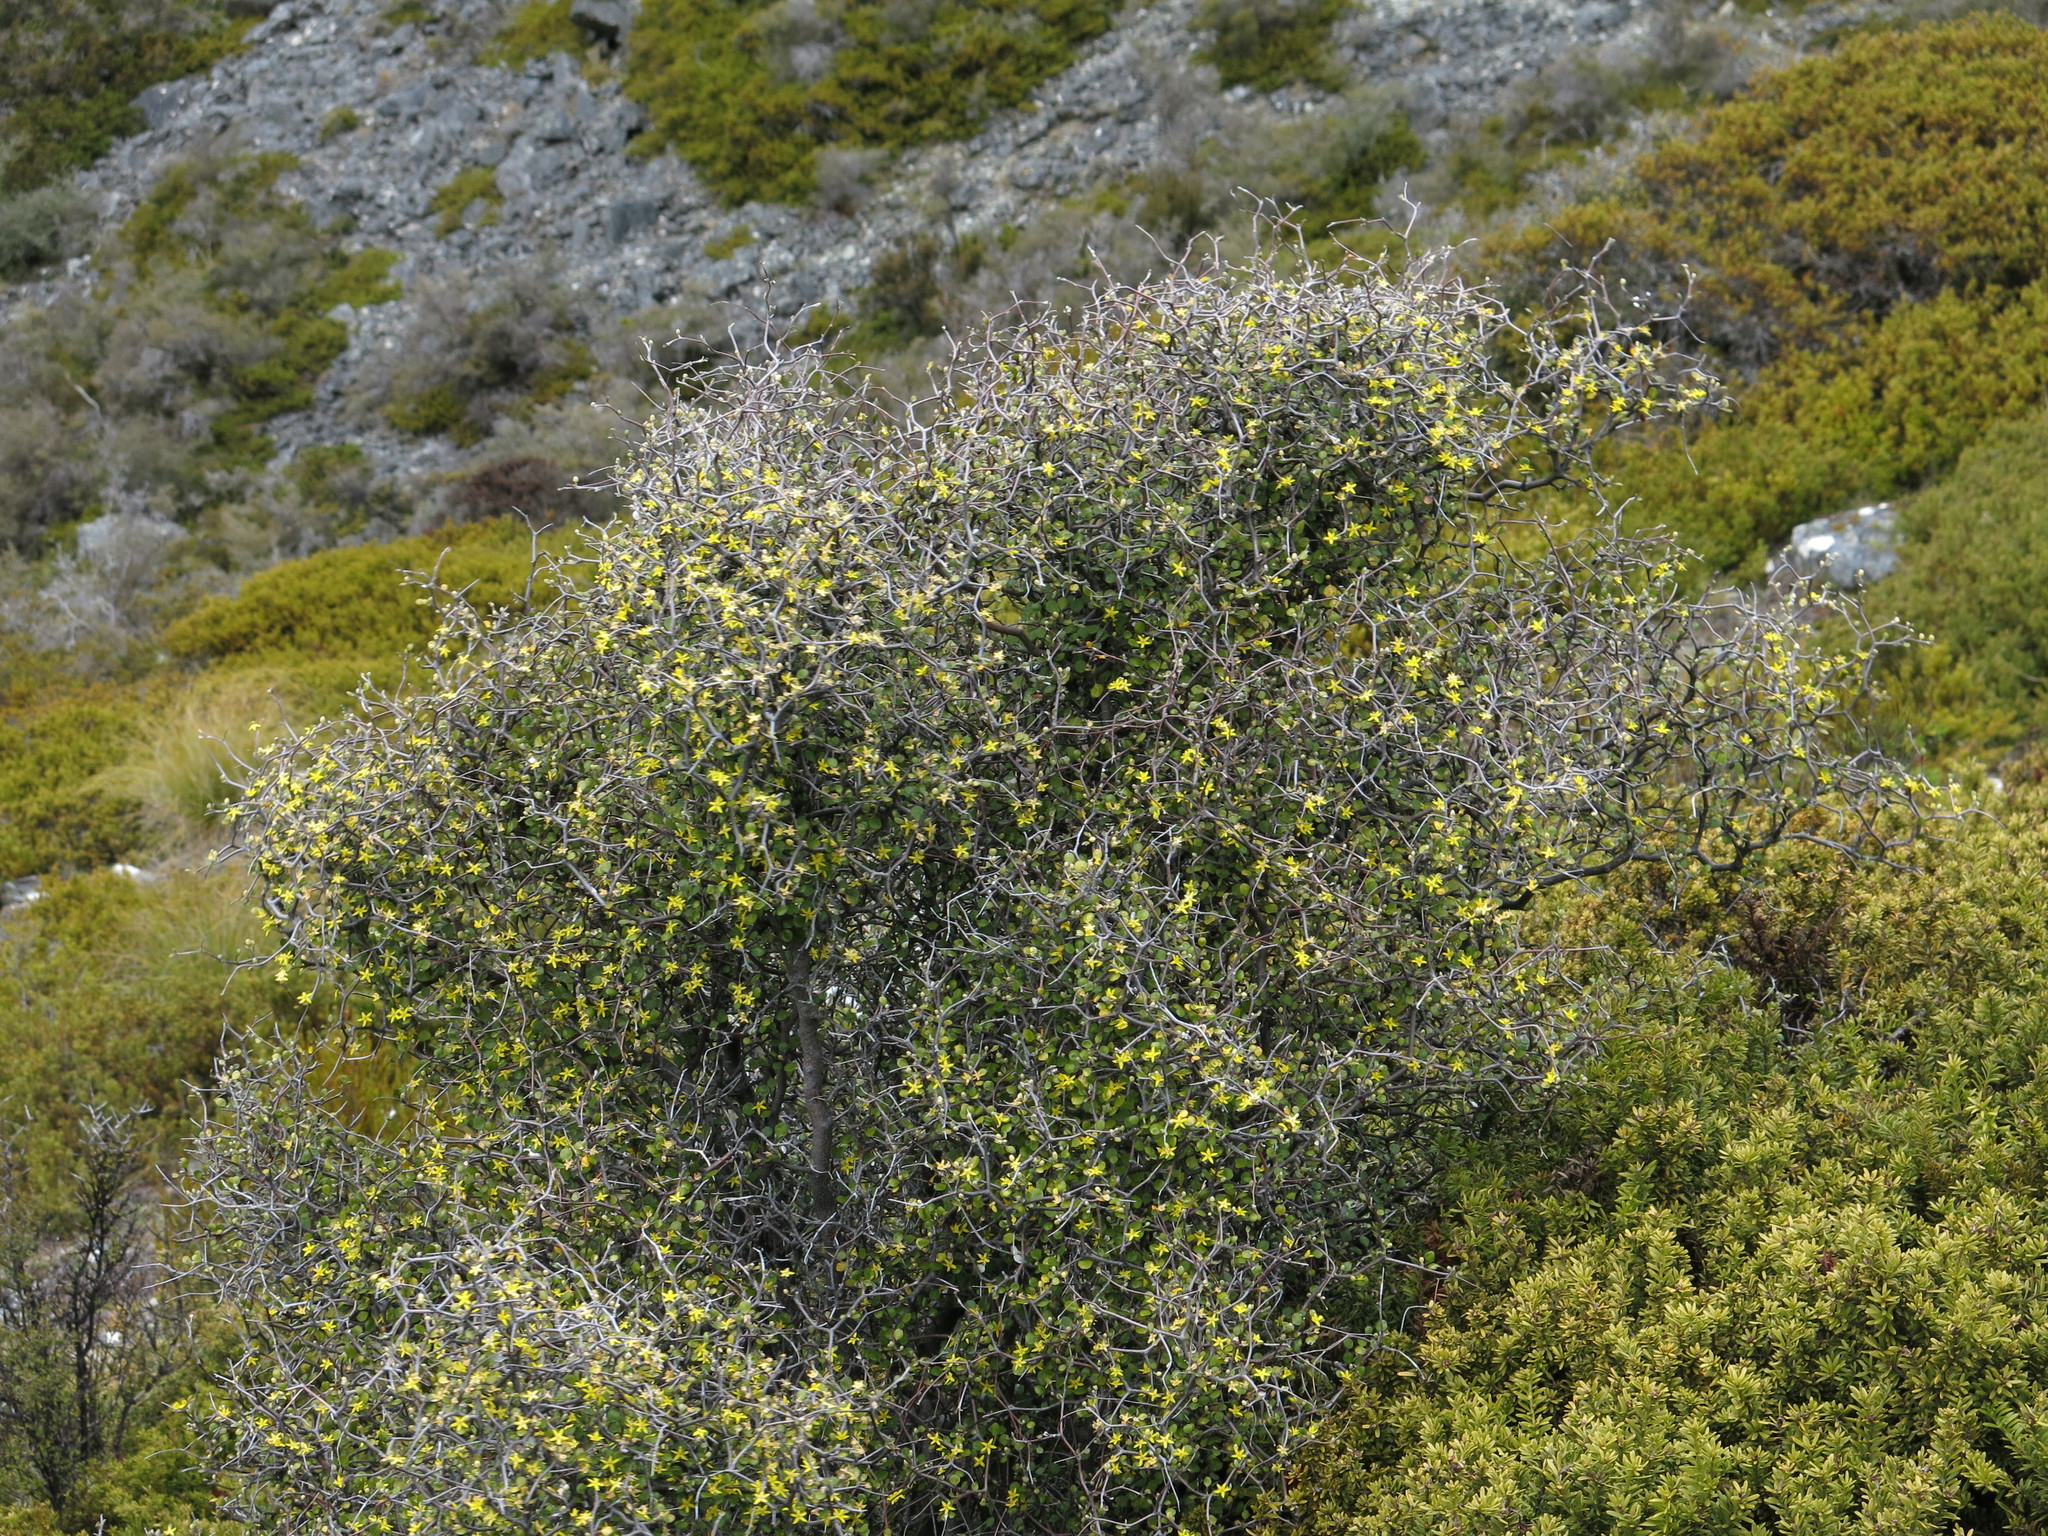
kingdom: Plantae
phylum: Tracheophyta
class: Magnoliopsida
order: Asterales
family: Argophyllaceae
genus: Corokia
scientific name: Corokia cotoneaster
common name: Wire nettingbush
